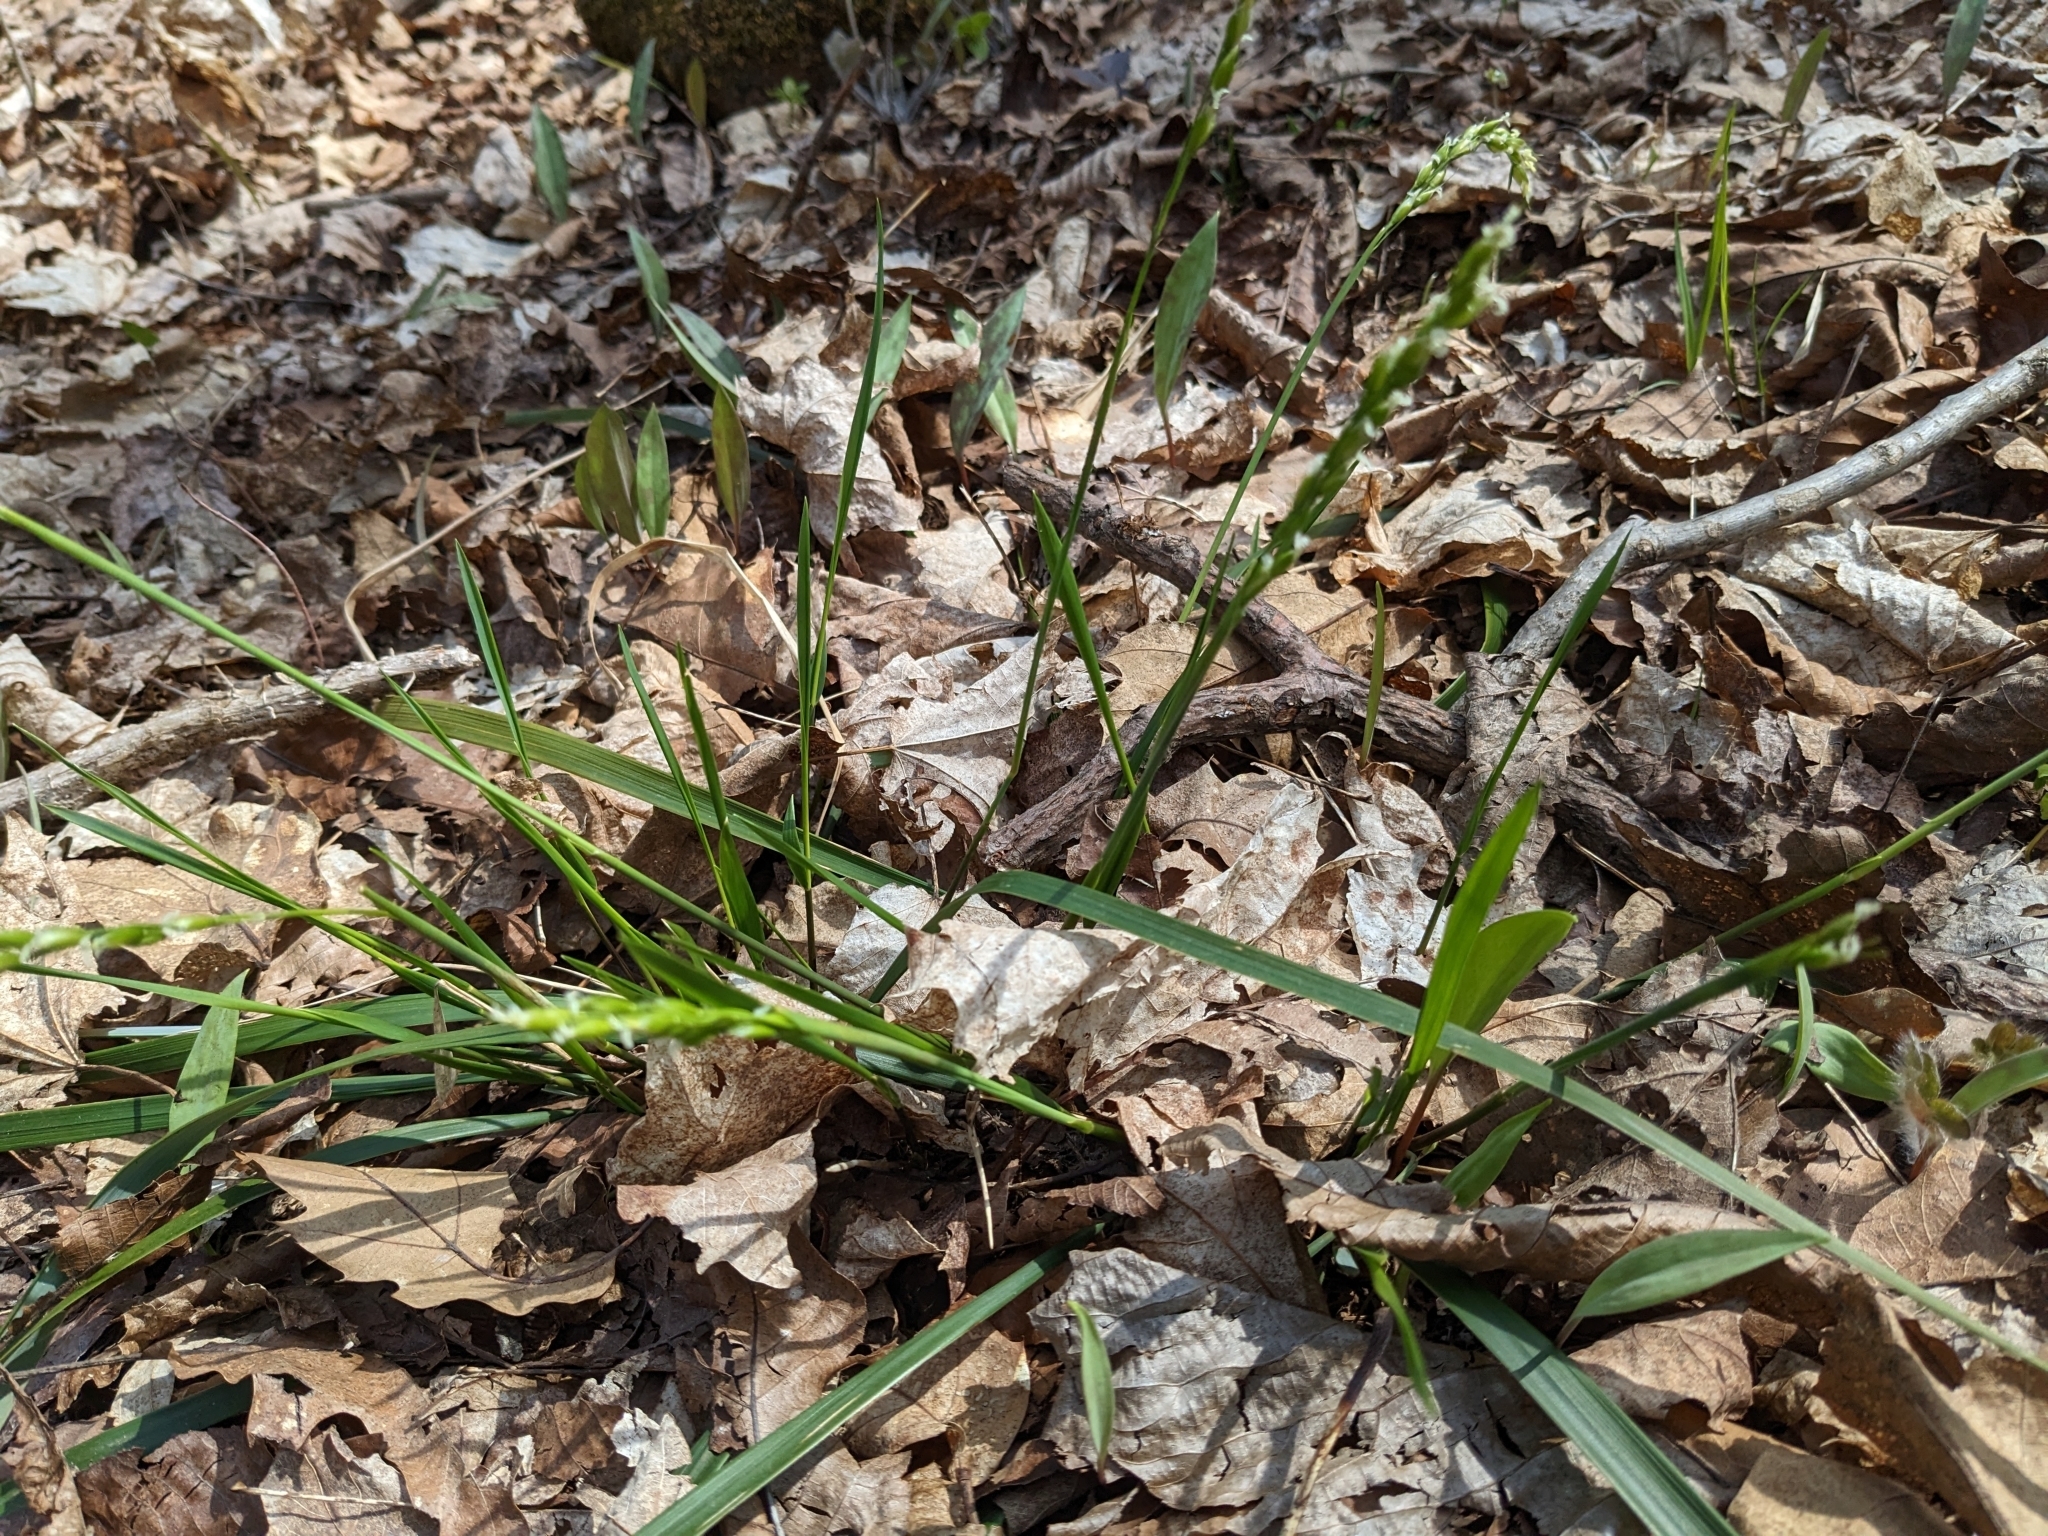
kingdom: Plantae
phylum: Tracheophyta
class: Liliopsida
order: Poales
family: Poaceae
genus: Oryzopsis
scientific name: Oryzopsis asperifolia
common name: Rough-leaved mountain rice
